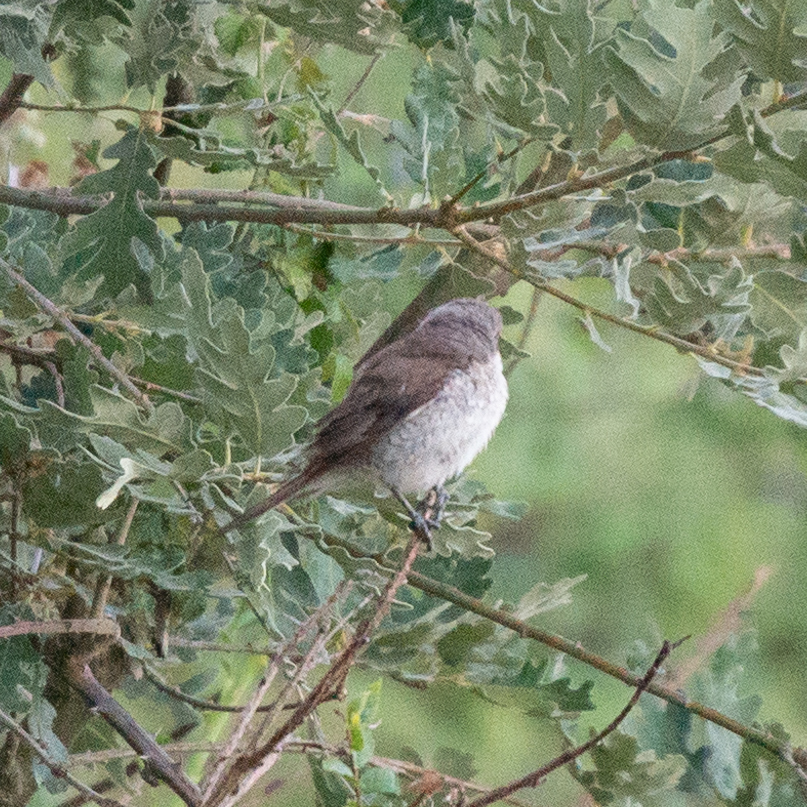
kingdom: Animalia
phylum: Chordata
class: Aves
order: Passeriformes
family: Laniidae
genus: Lanius
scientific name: Lanius collurio
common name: Red-backed shrike
